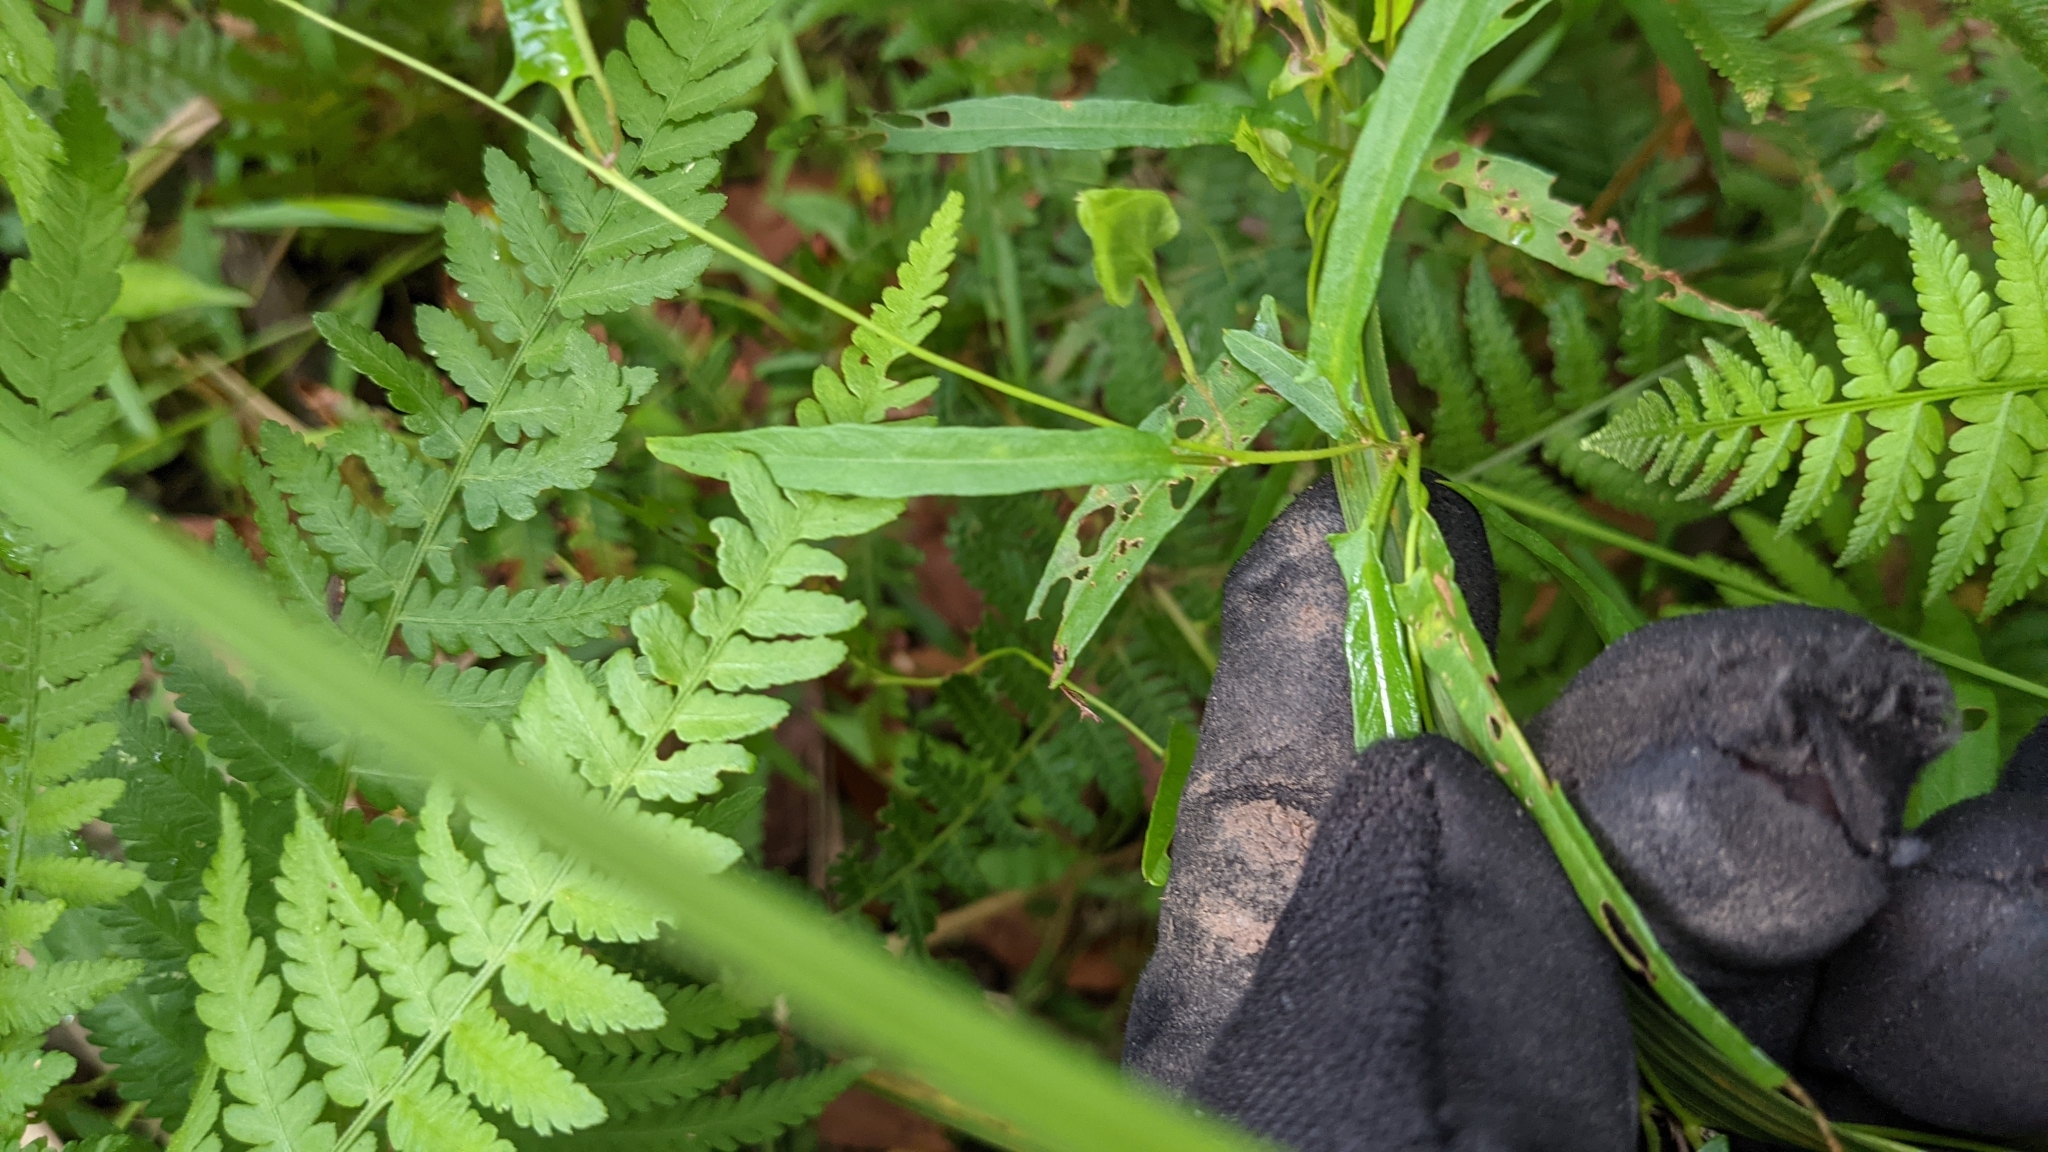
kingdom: Plantae
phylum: Tracheophyta
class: Magnoliopsida
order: Solanales
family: Convolvulaceae
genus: Polymeria
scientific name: Polymeria calycina
